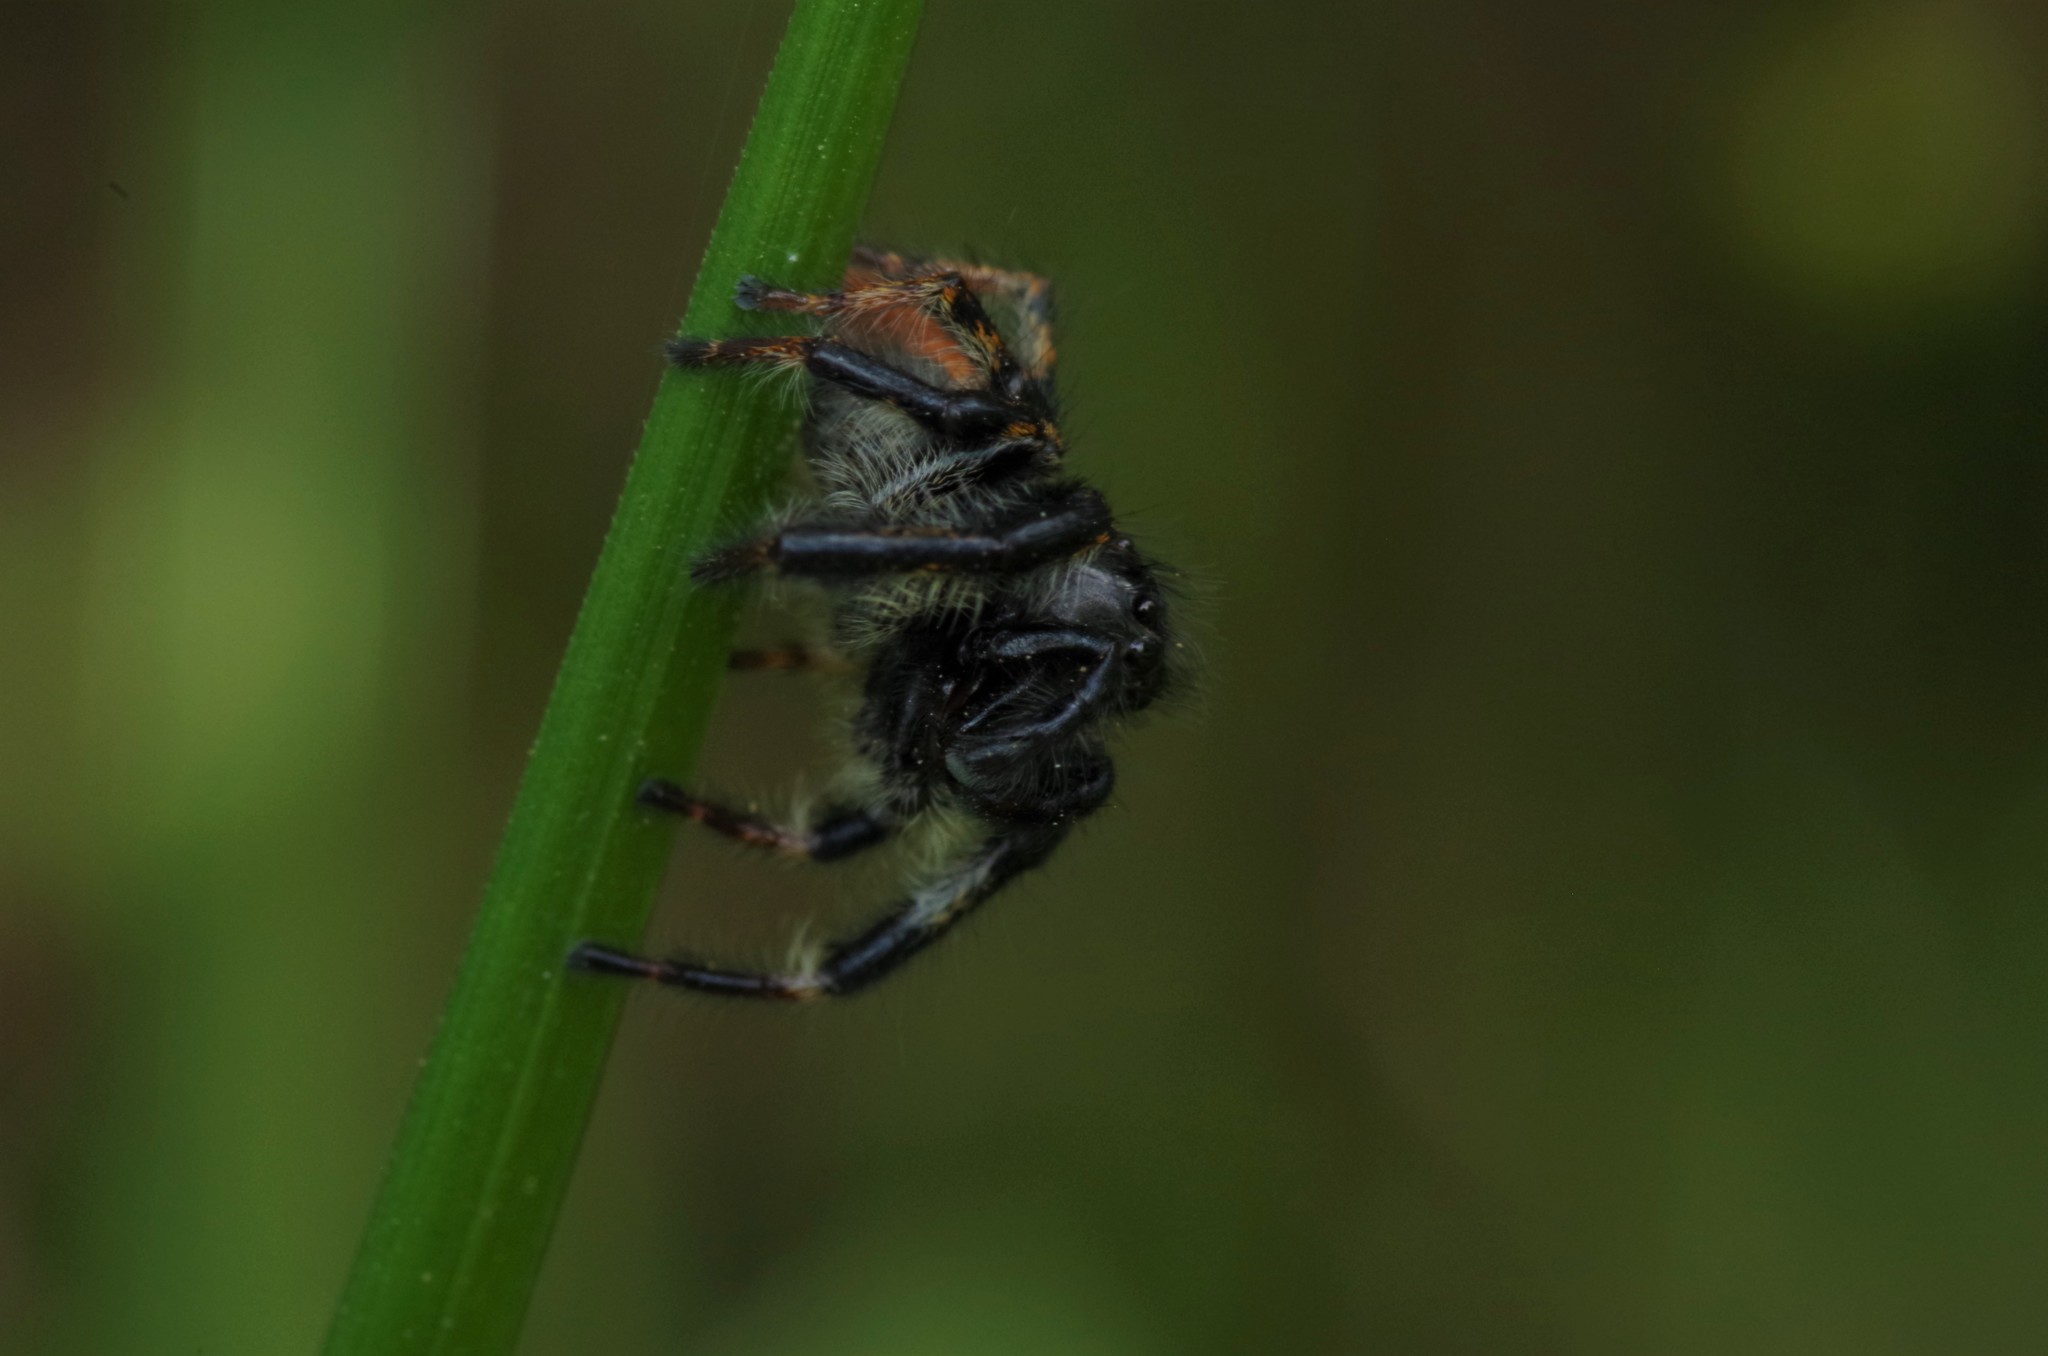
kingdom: Animalia
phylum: Arthropoda
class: Arachnida
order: Araneae
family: Salticidae
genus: Carrhotus
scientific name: Carrhotus xanthogramma
